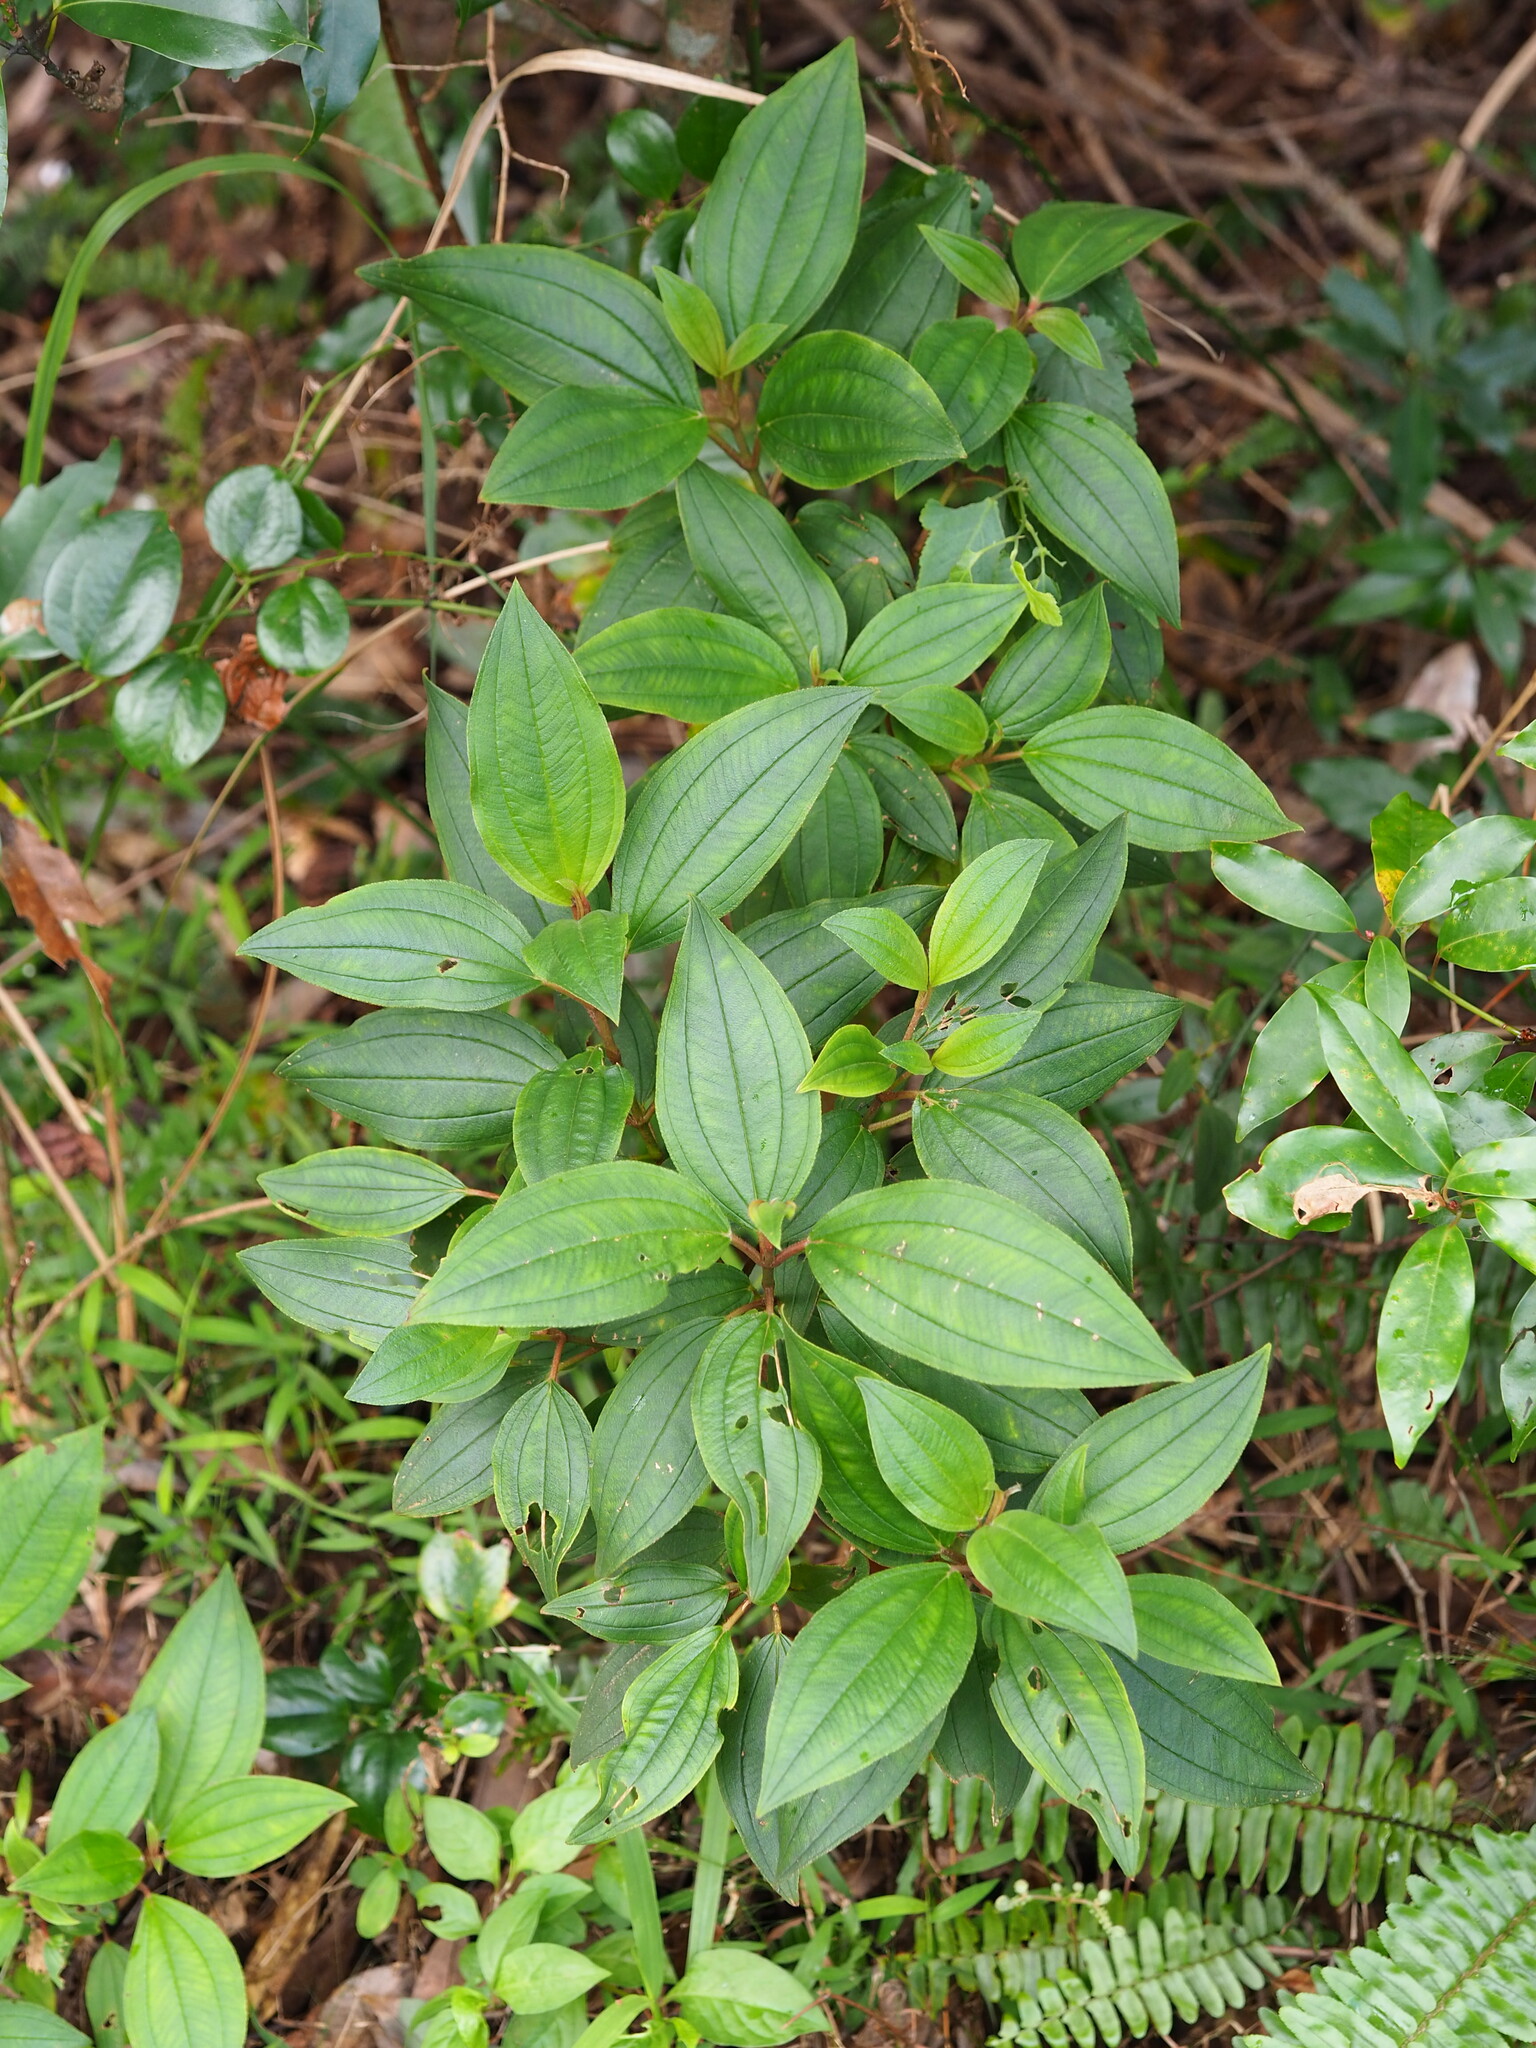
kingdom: Plantae
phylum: Tracheophyta
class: Magnoliopsida
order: Myrtales
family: Melastomataceae
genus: Melastoma
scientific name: Melastoma malabathricum
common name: Indian-rhododendron
